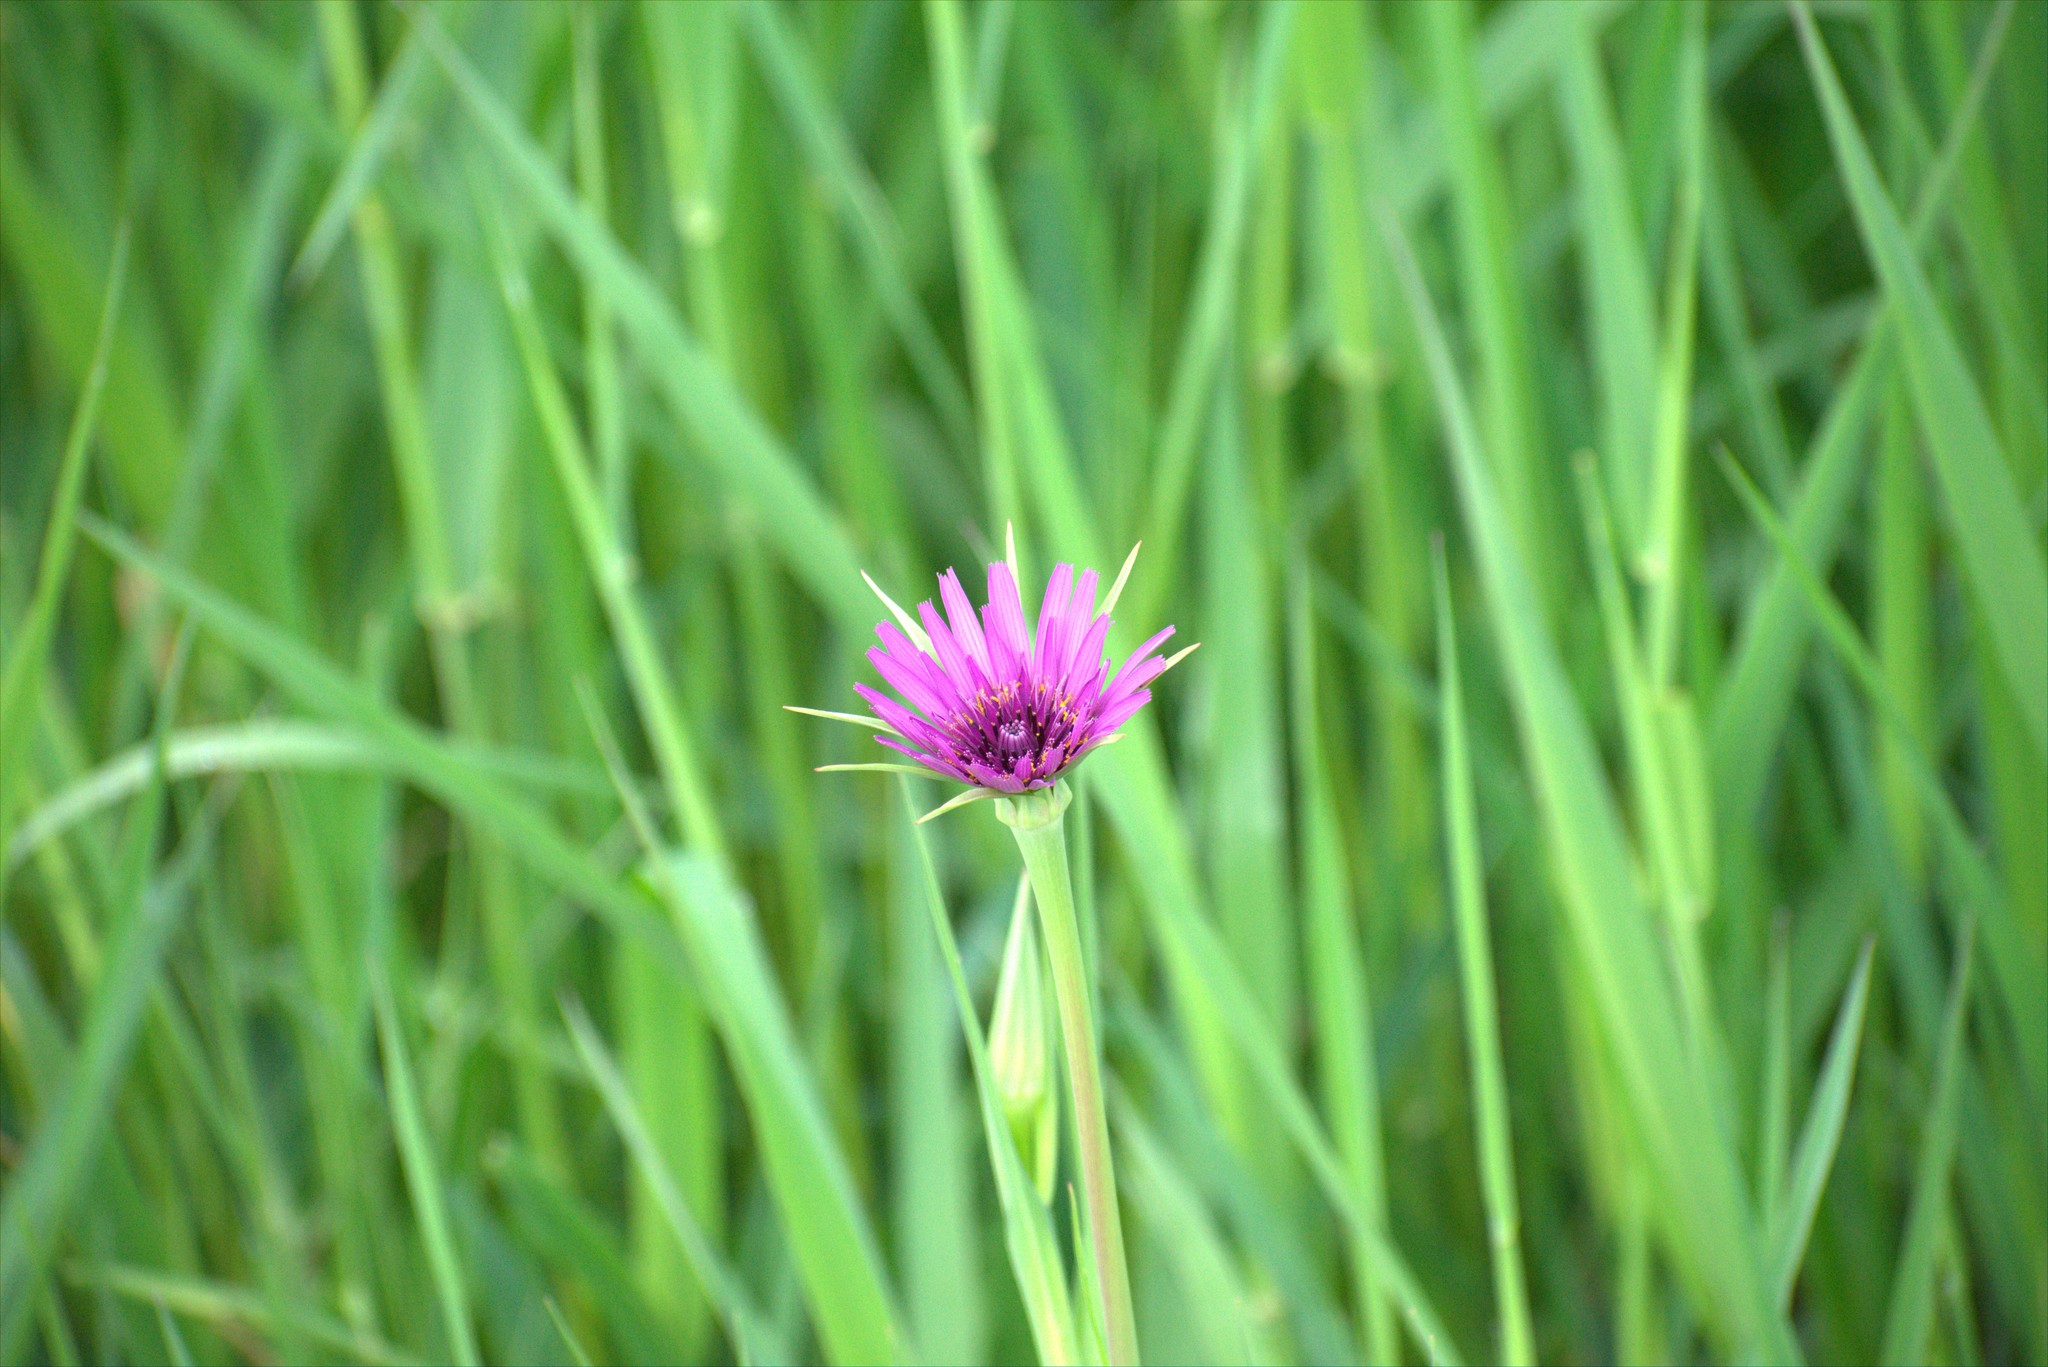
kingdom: Plantae
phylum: Tracheophyta
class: Magnoliopsida
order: Asterales
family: Asteraceae
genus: Tragopogon
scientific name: Tragopogon porrifolius
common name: Salsify
